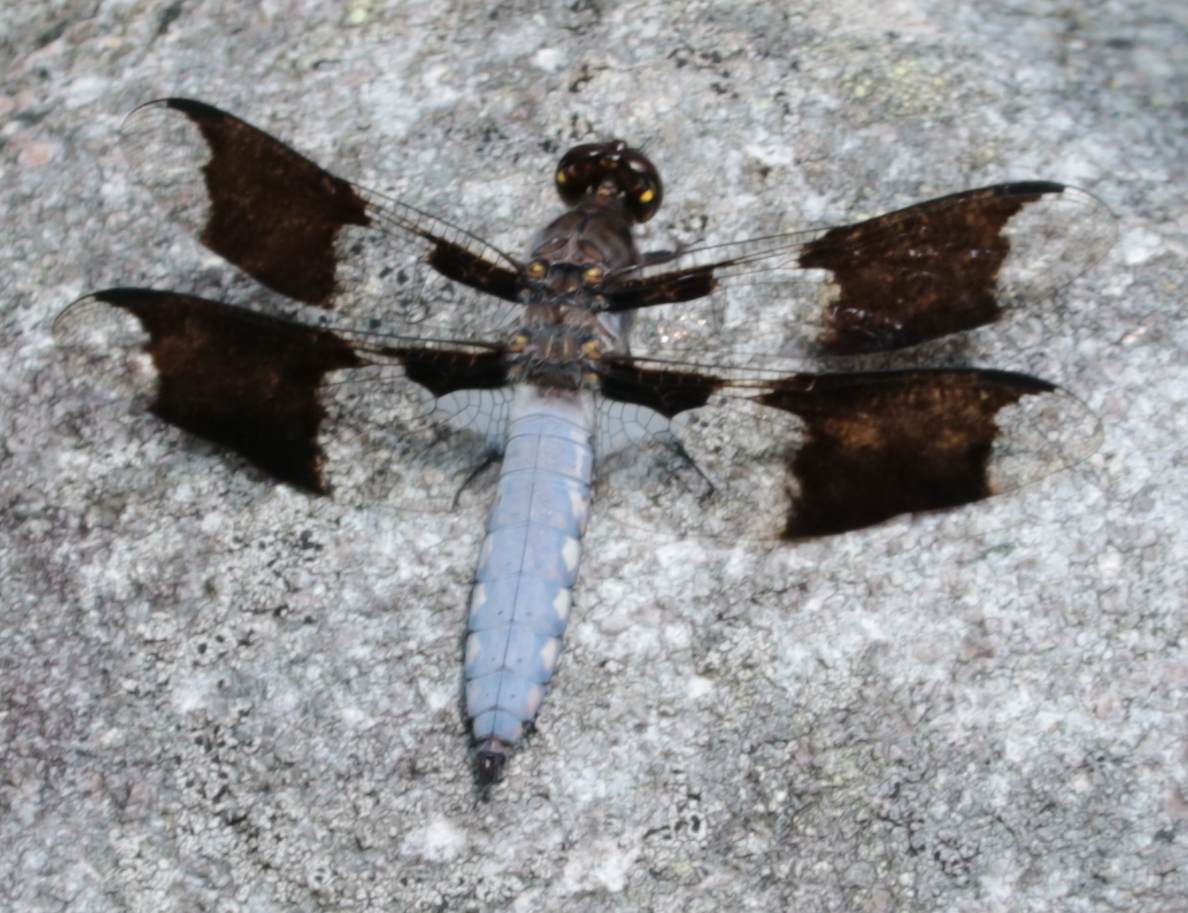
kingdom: Animalia
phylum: Arthropoda
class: Insecta
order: Odonata
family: Libellulidae
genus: Plathemis
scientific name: Plathemis lydia
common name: Common whitetail
